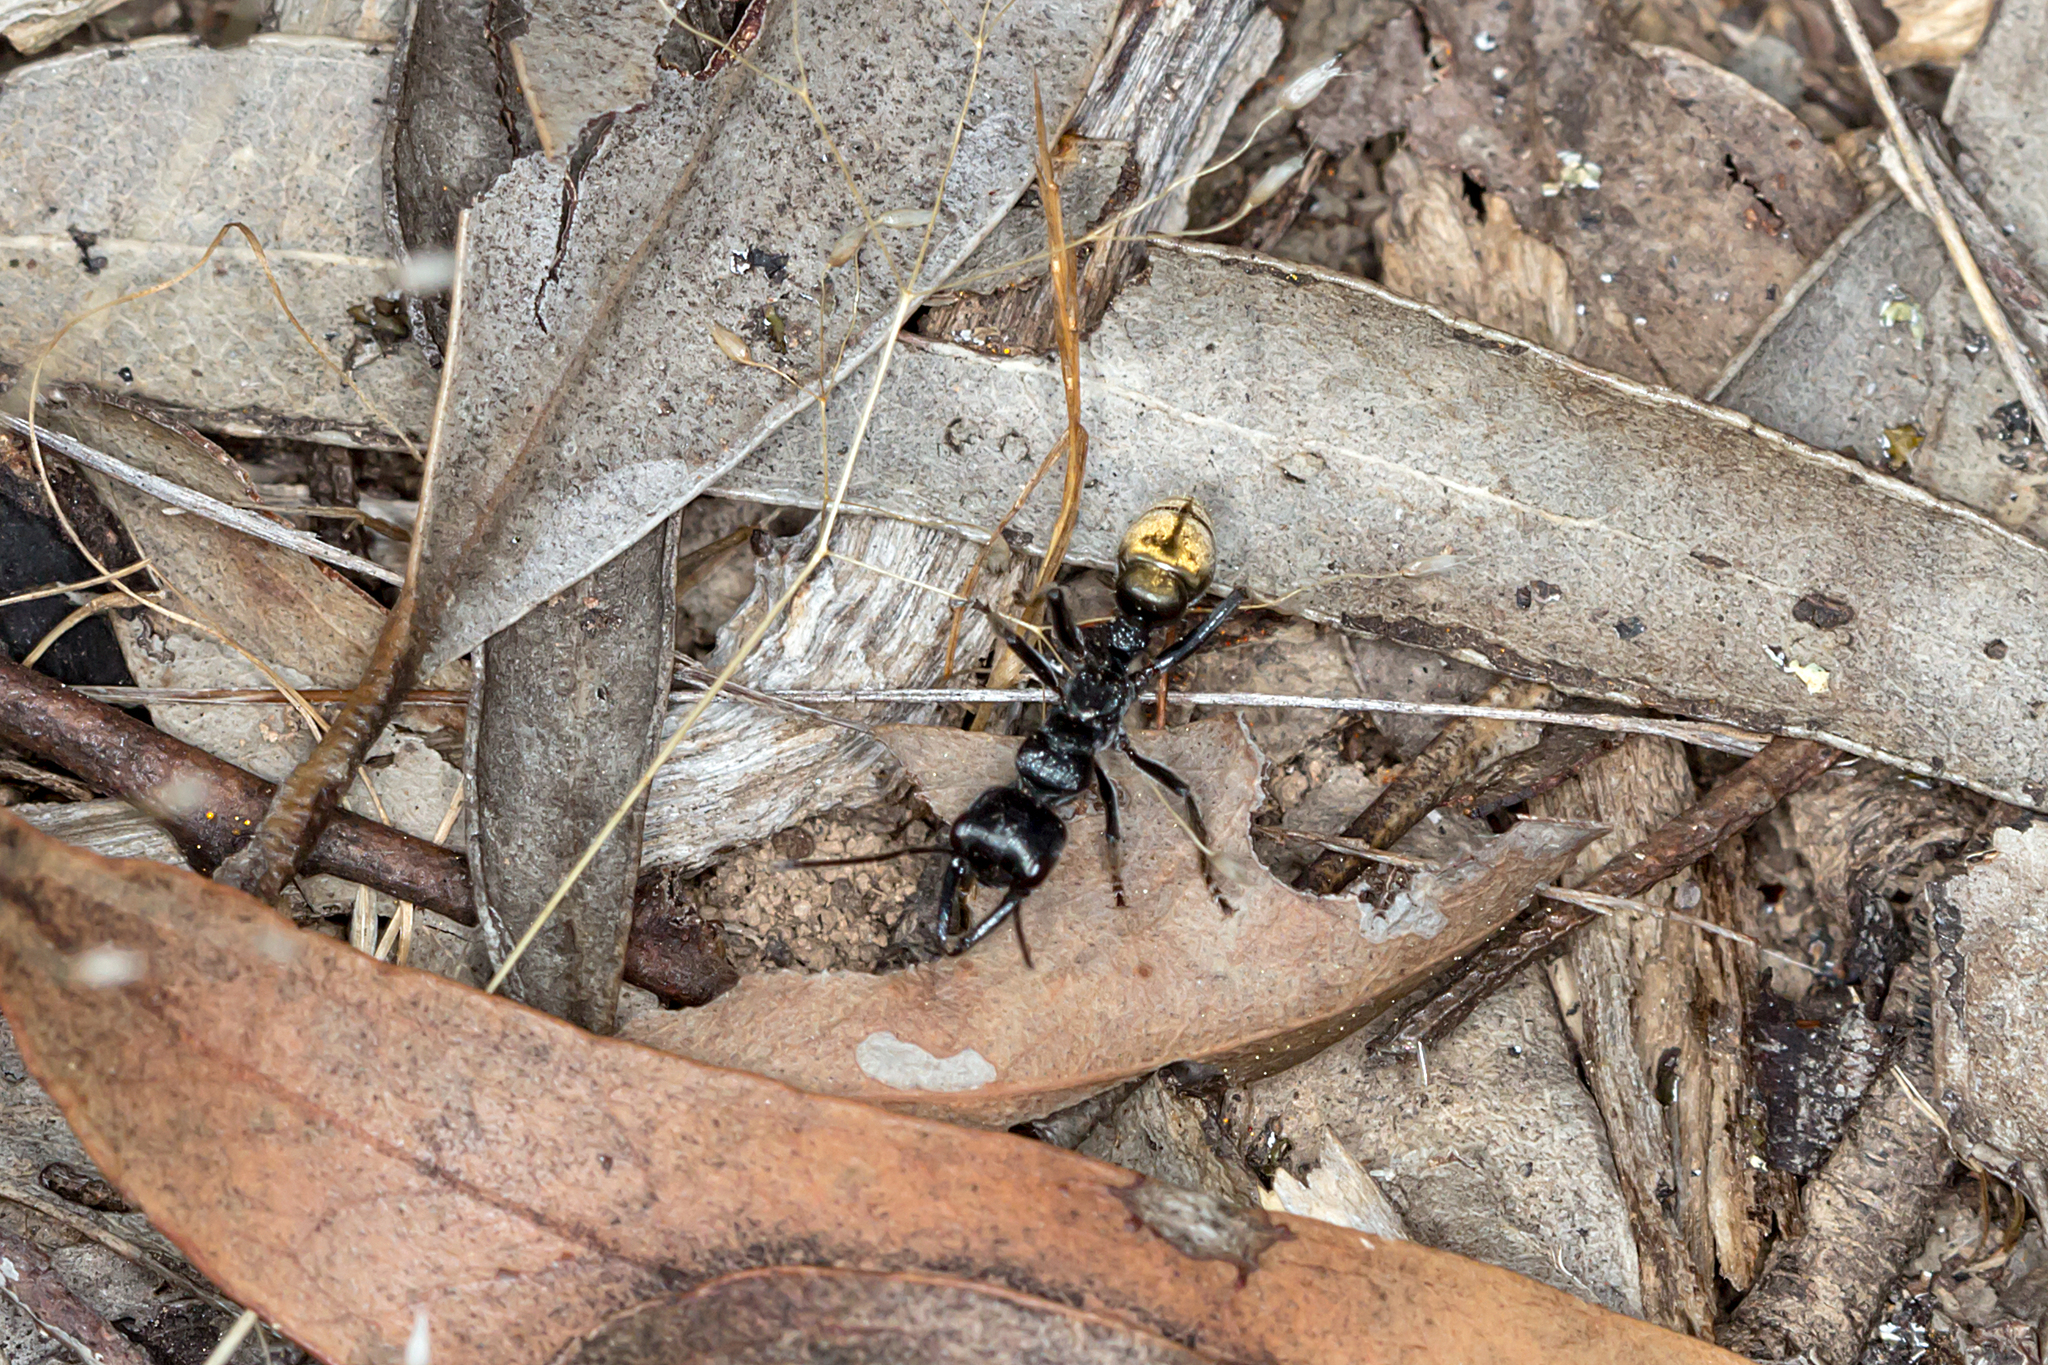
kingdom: Animalia
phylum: Arthropoda
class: Insecta
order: Hymenoptera
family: Formicidae
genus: Myrmecia
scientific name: Myrmecia piliventris
